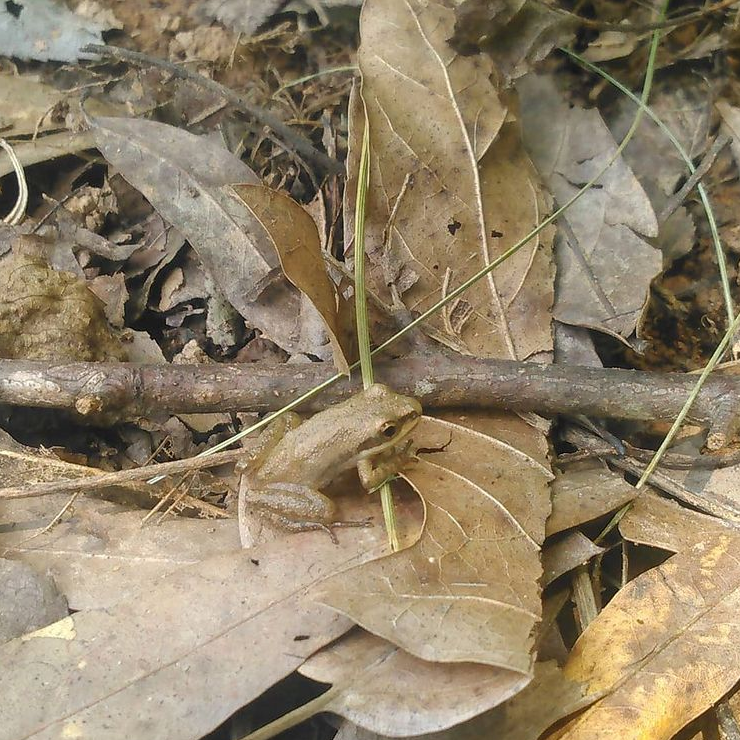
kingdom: Animalia
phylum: Chordata
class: Amphibia
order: Anura
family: Hylidae
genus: Pseudacris
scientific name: Pseudacris feriarum
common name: Upland chorus frog
